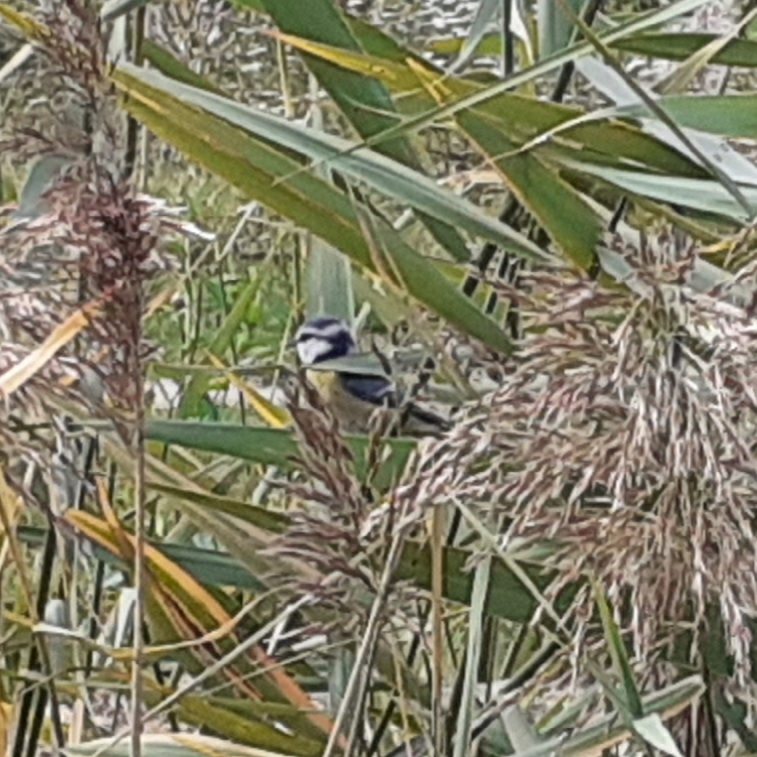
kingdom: Animalia
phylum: Chordata
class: Aves
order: Passeriformes
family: Paridae
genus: Cyanistes
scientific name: Cyanistes caeruleus
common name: Eurasian blue tit
